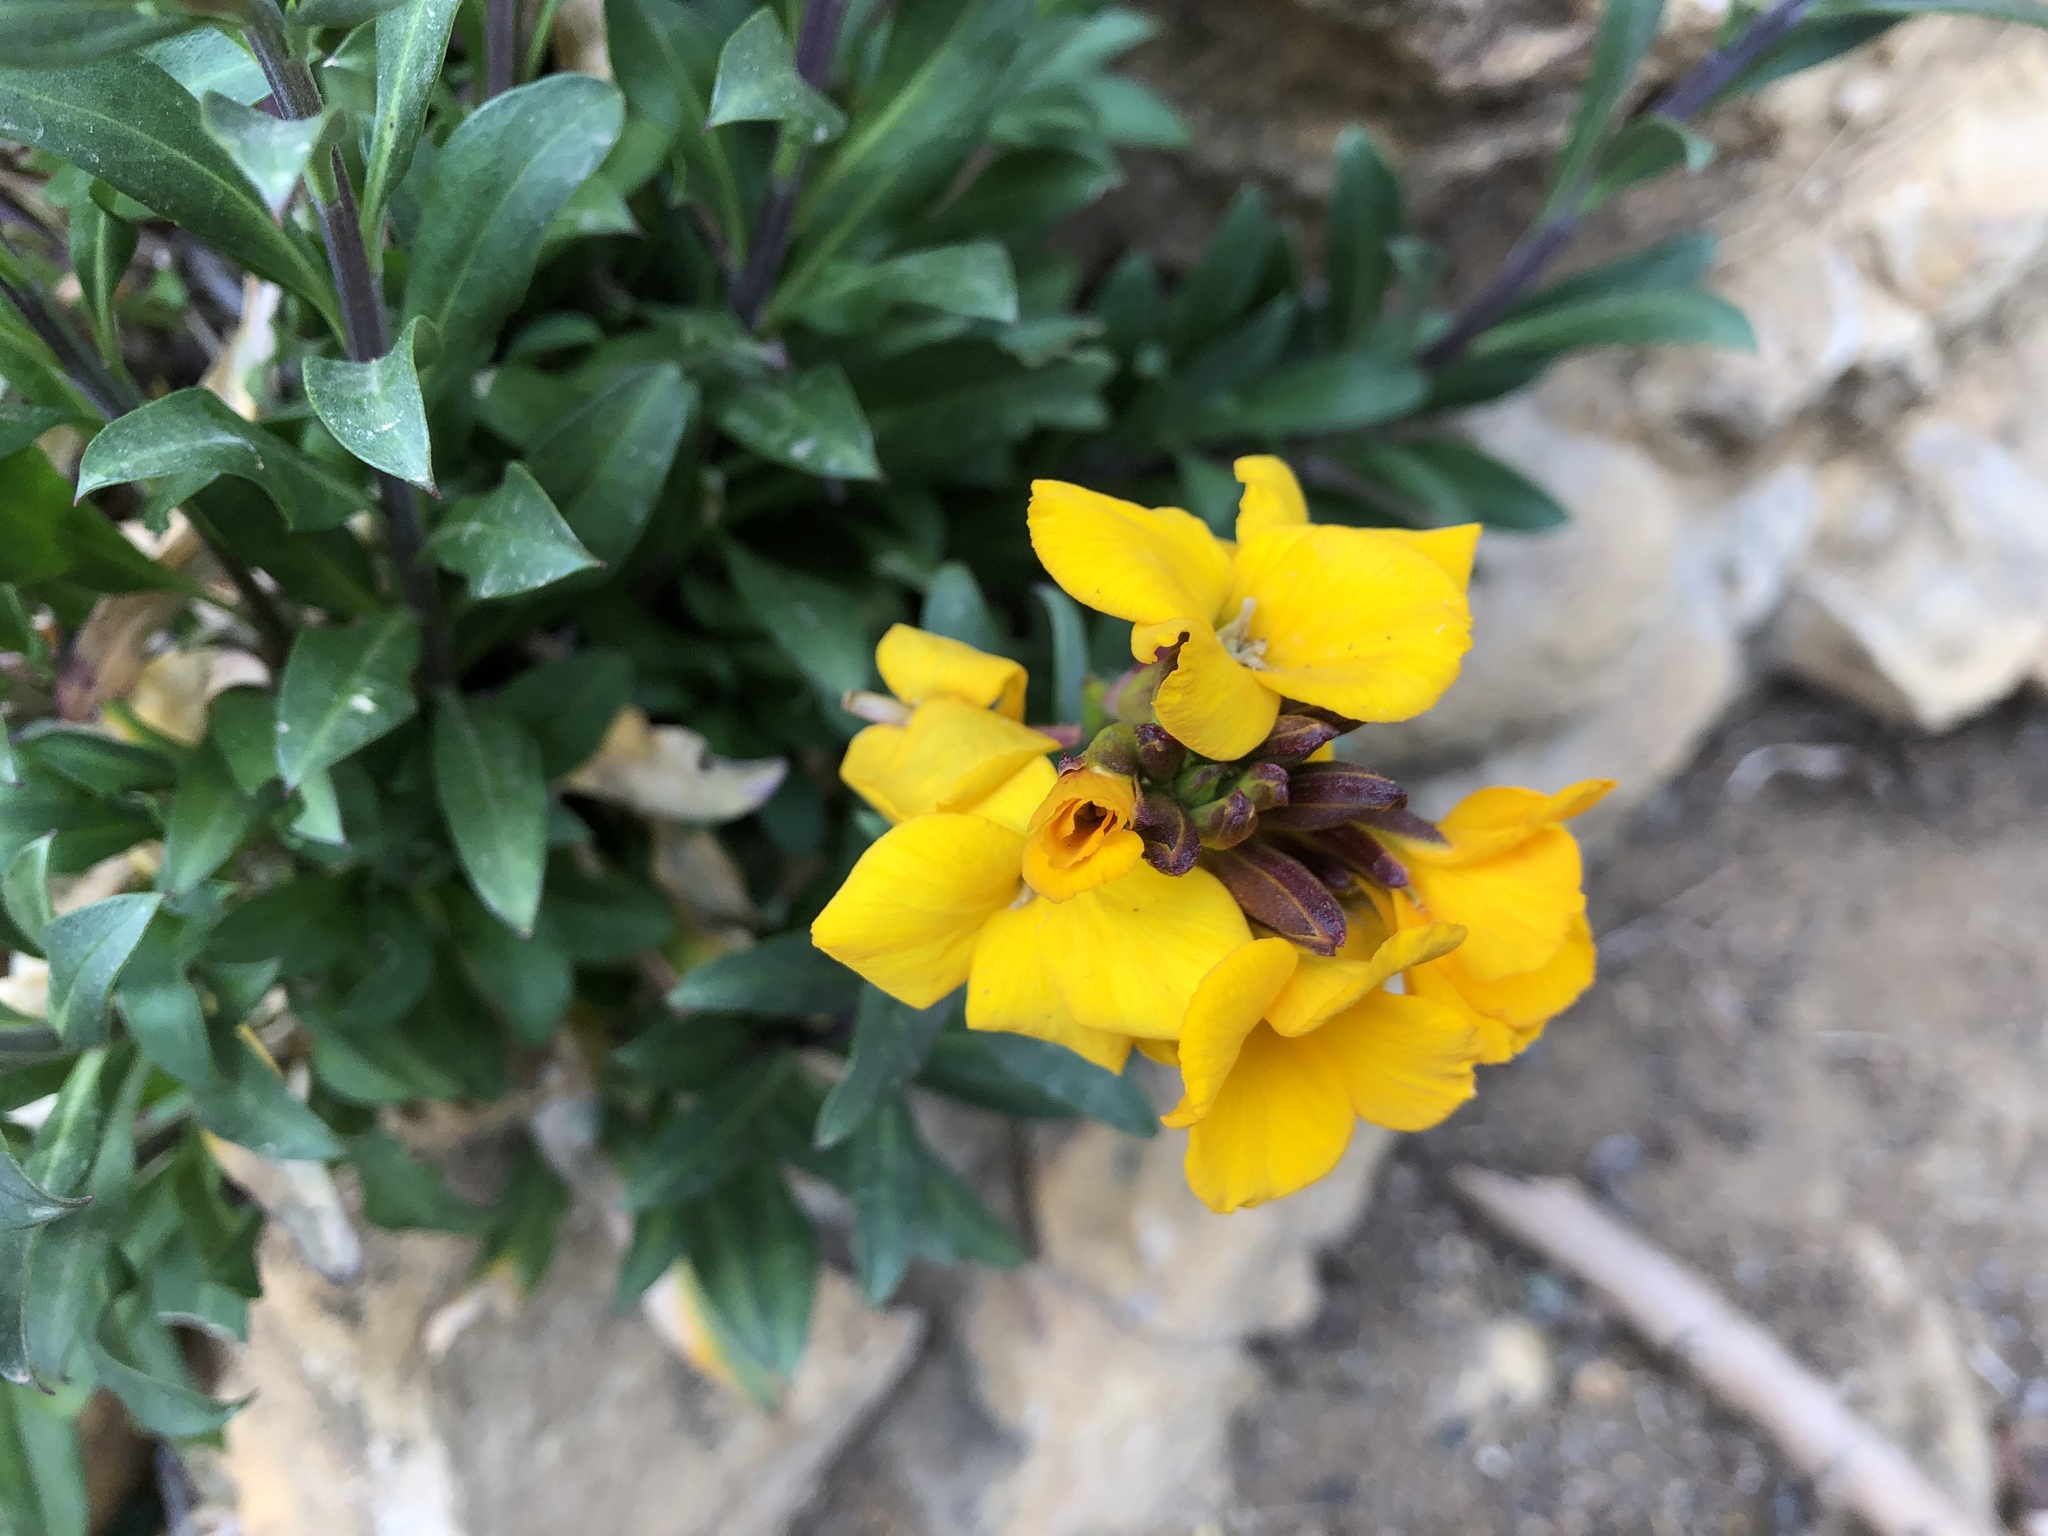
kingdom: Plantae
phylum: Tracheophyta
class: Magnoliopsida
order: Brassicales
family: Brassicaceae
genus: Erysimum
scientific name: Erysimum cheiri
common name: Wallflower
